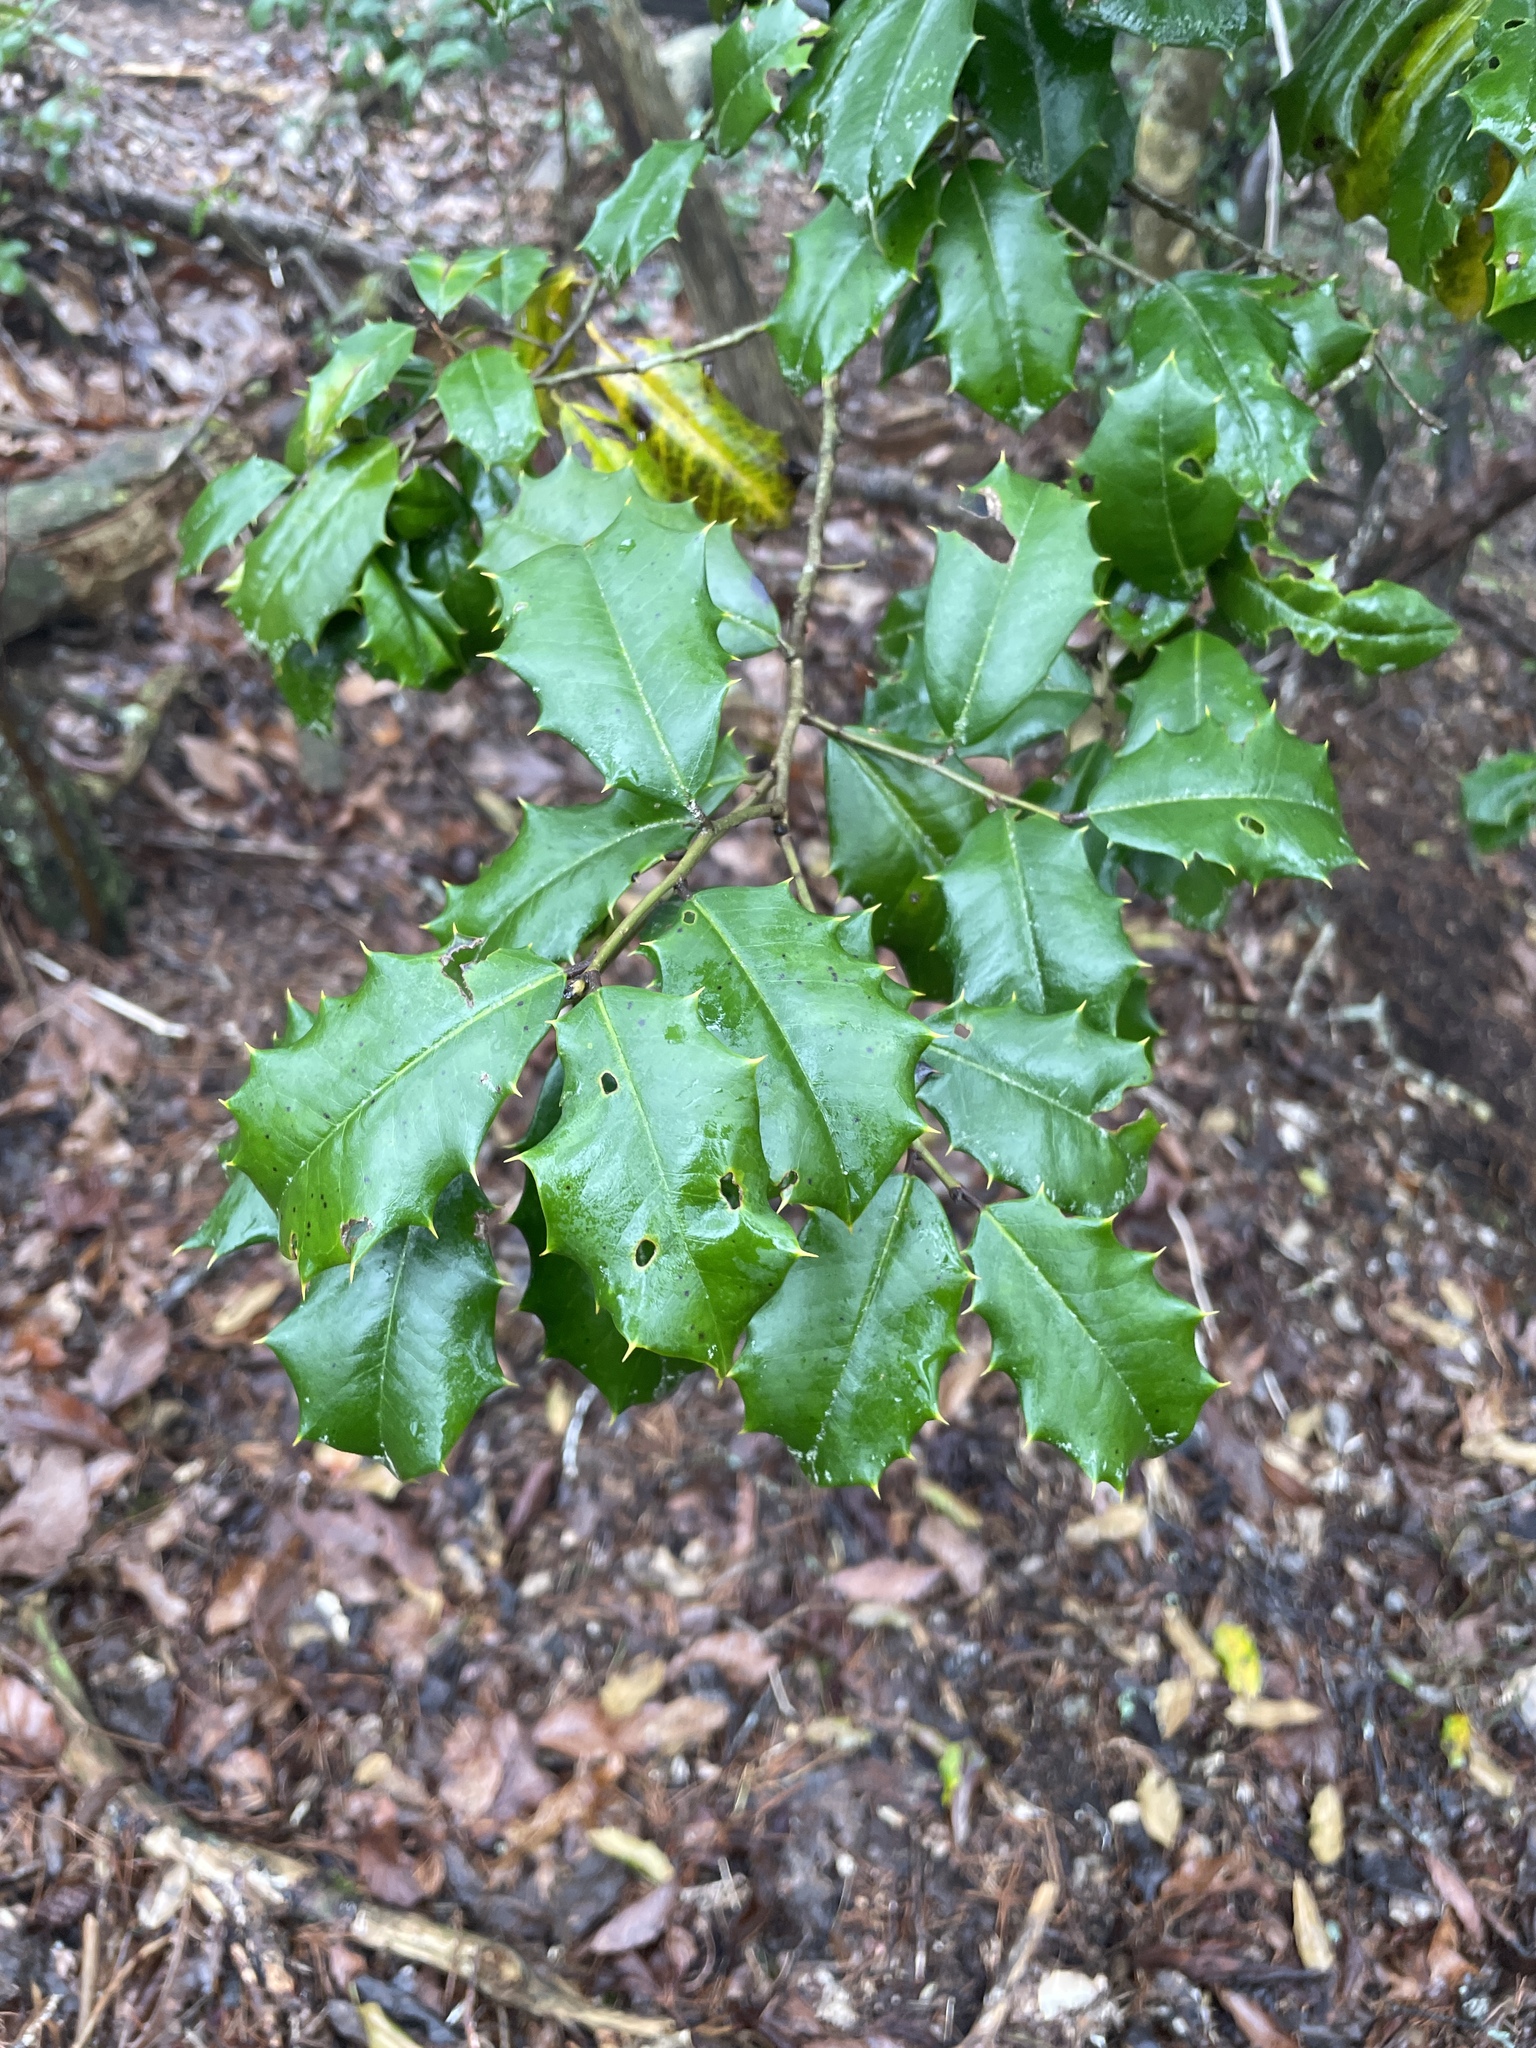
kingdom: Plantae
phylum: Tracheophyta
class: Magnoliopsida
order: Aquifoliales
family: Aquifoliaceae
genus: Ilex
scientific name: Ilex opaca
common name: American holly
